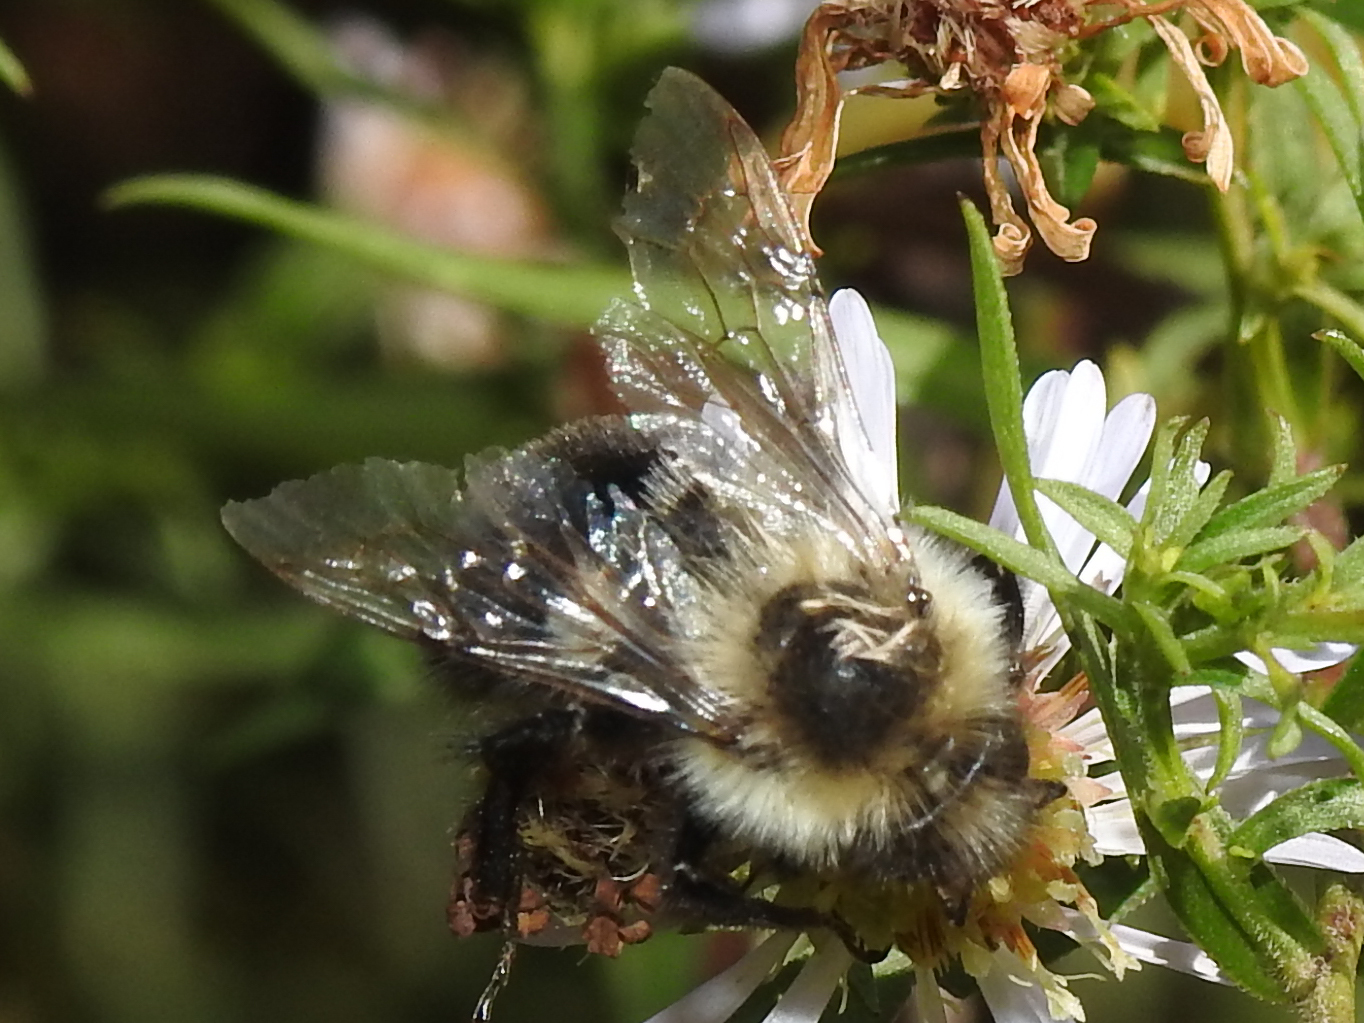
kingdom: Animalia
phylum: Arthropoda
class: Insecta
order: Hymenoptera
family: Apidae
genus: Bombus
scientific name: Bombus impatiens
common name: Common eastern bumble bee
